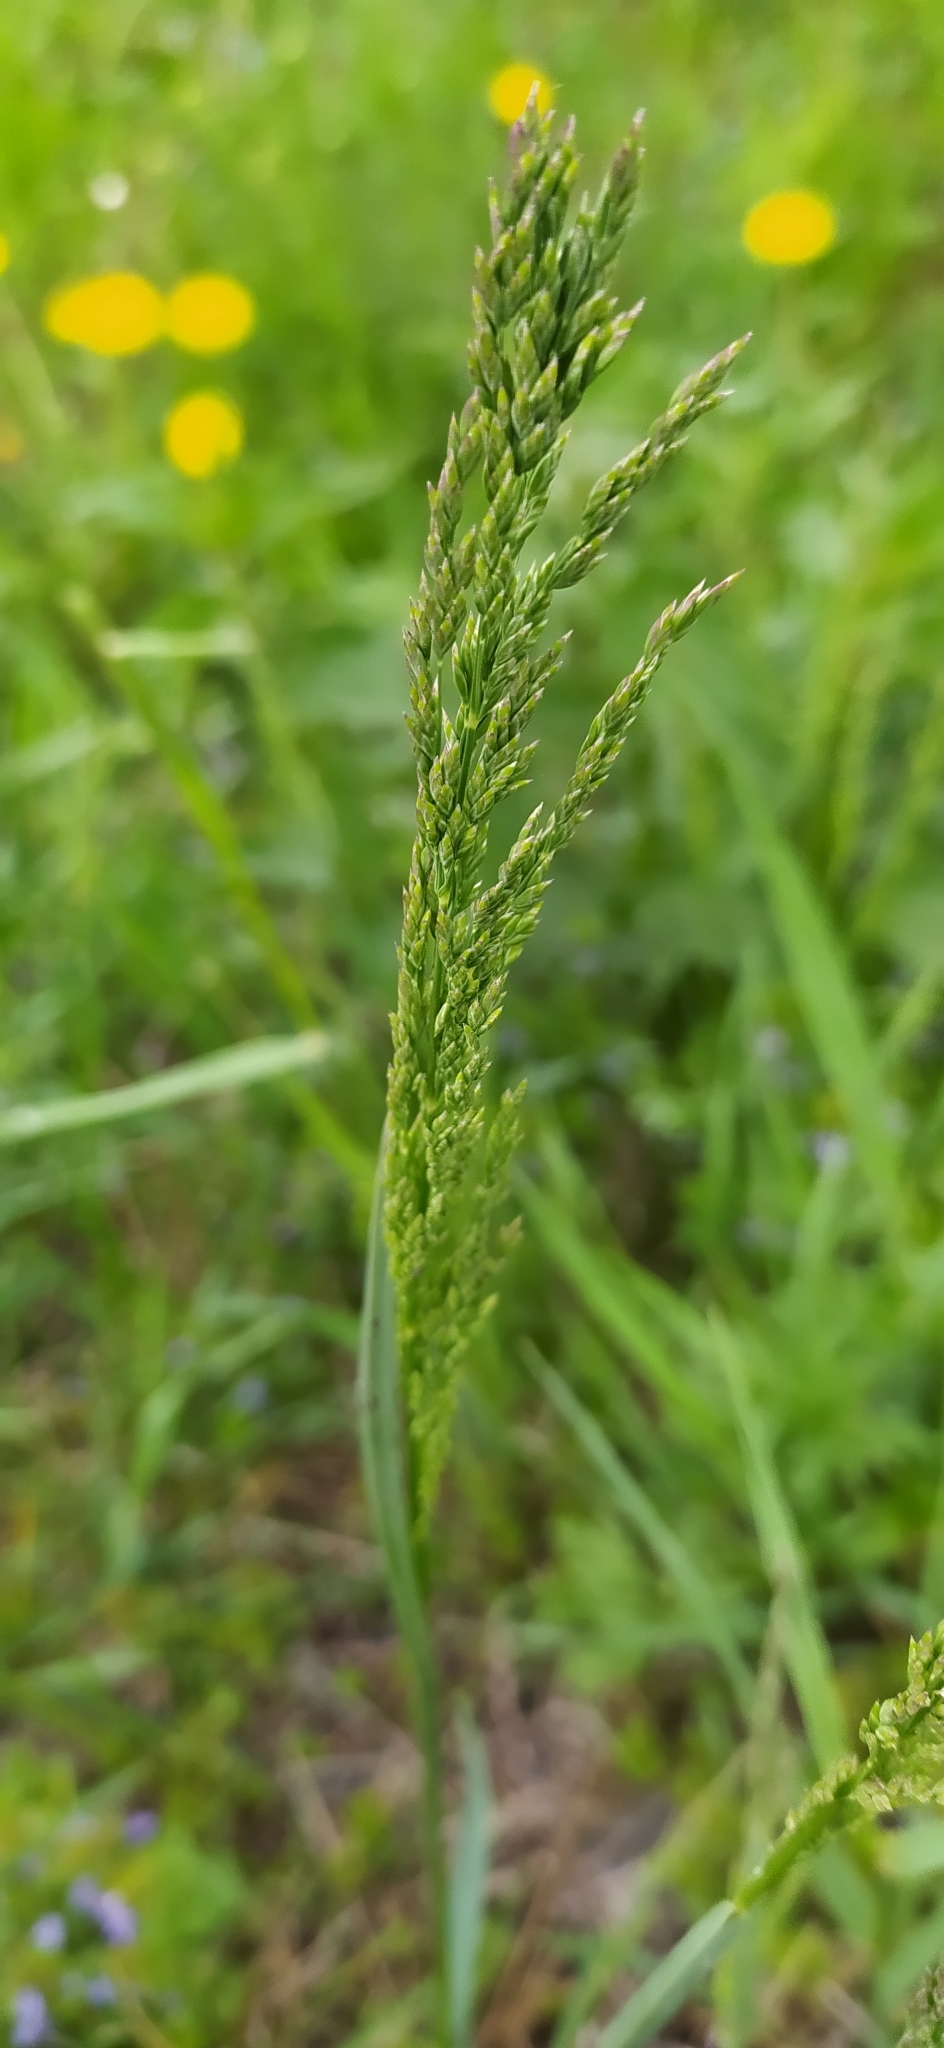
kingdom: Plantae
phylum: Tracheophyta
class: Liliopsida
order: Poales
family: Poaceae
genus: Poa
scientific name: Poa pratensis
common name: Kentucky bluegrass
